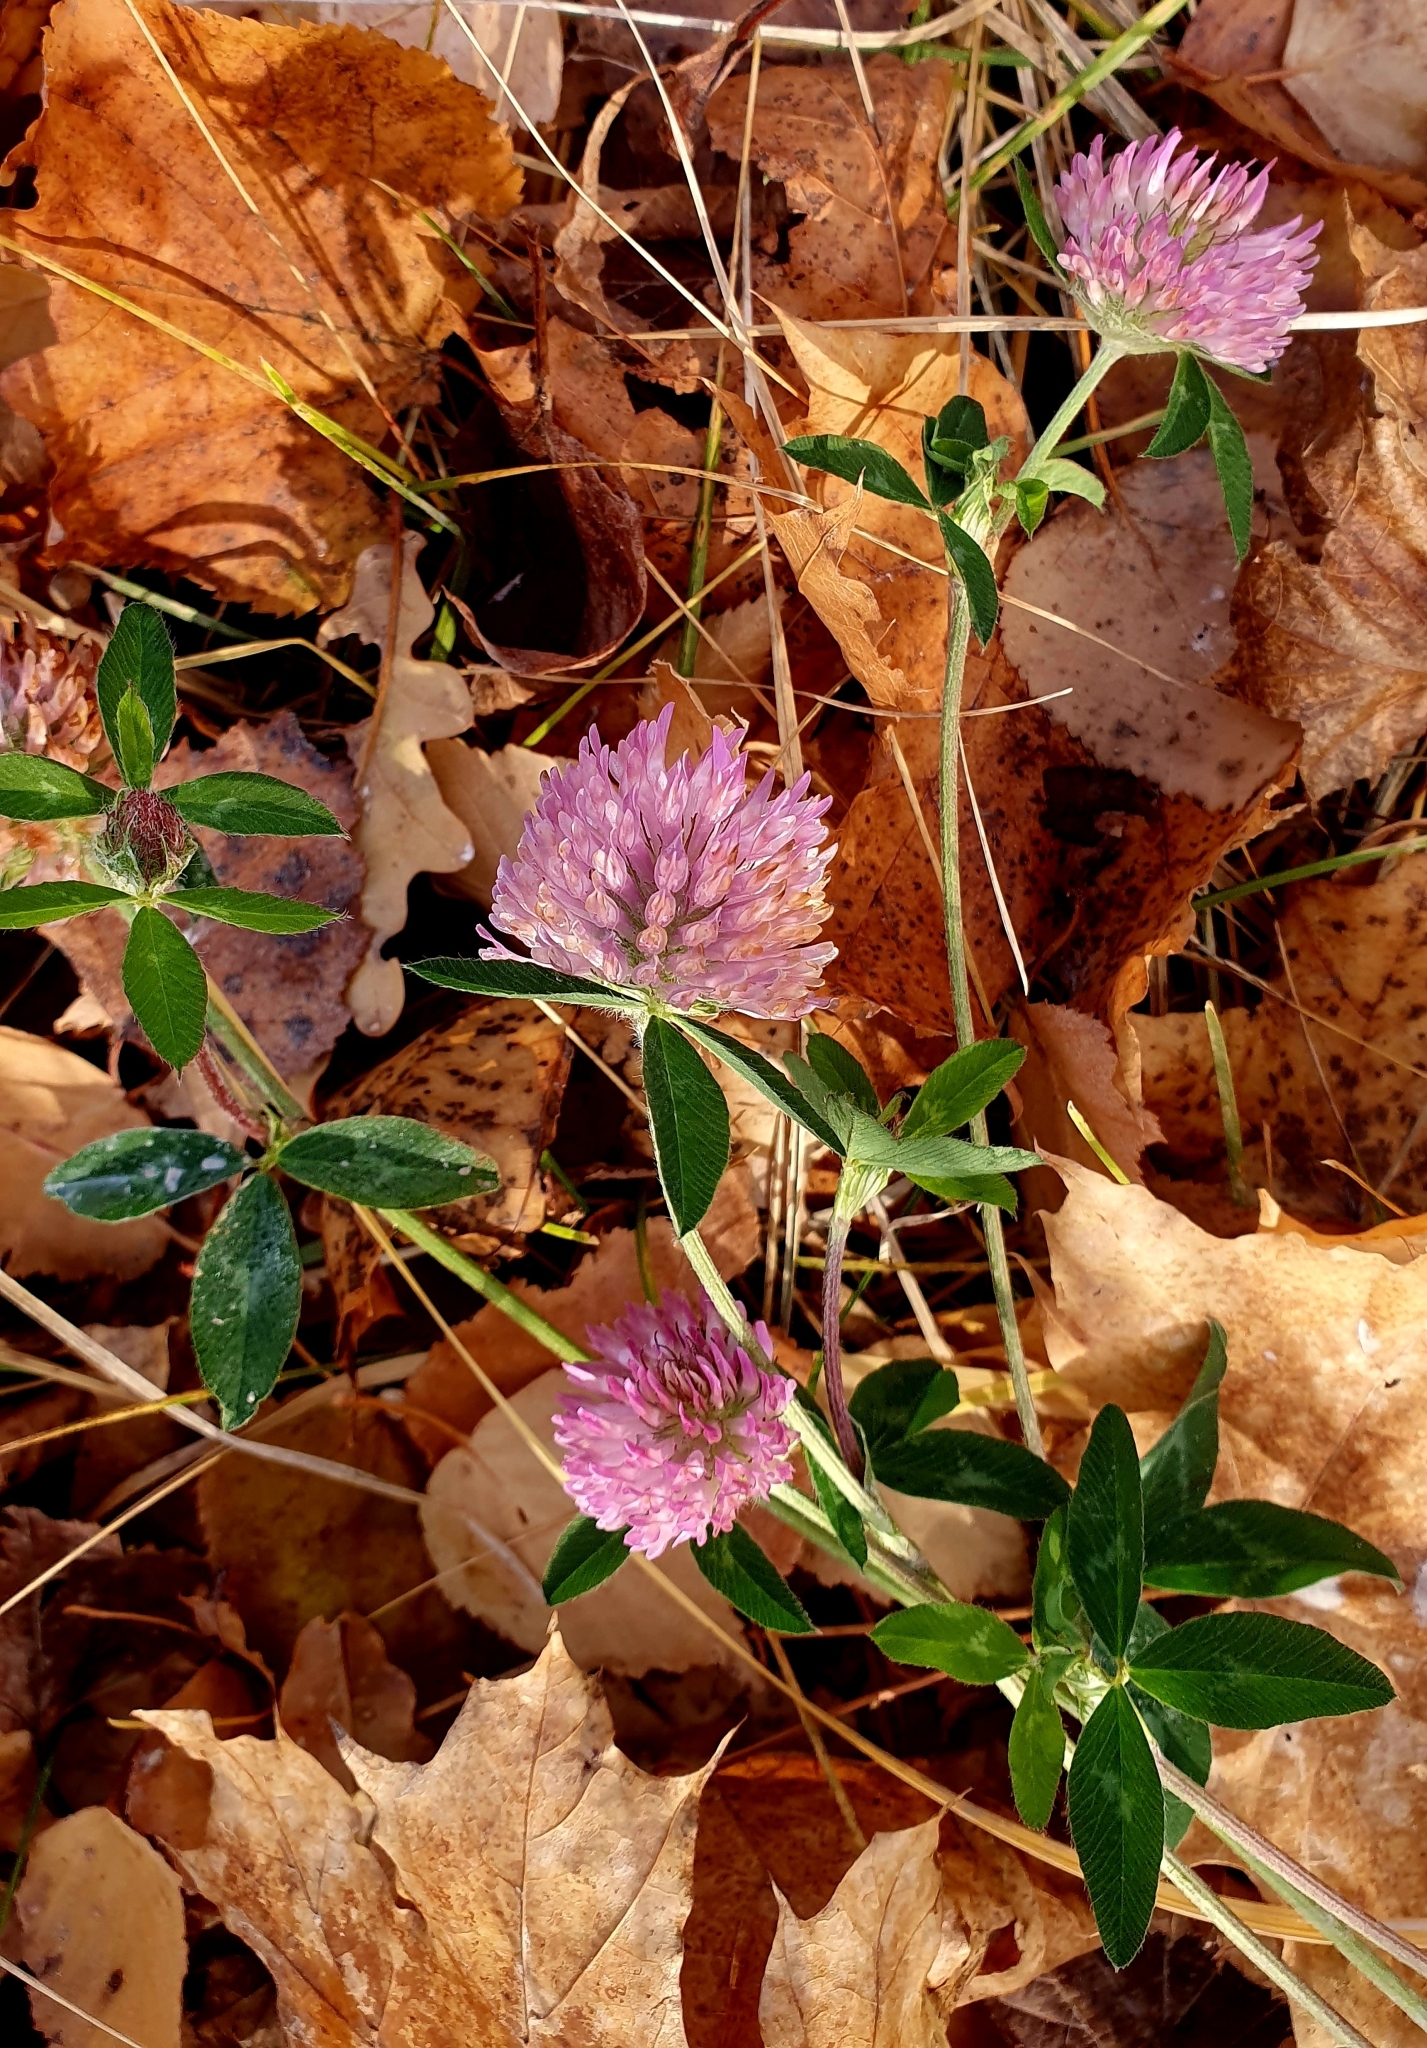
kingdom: Plantae
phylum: Tracheophyta
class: Magnoliopsida
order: Fabales
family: Fabaceae
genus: Trifolium
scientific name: Trifolium pratense
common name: Red clover
